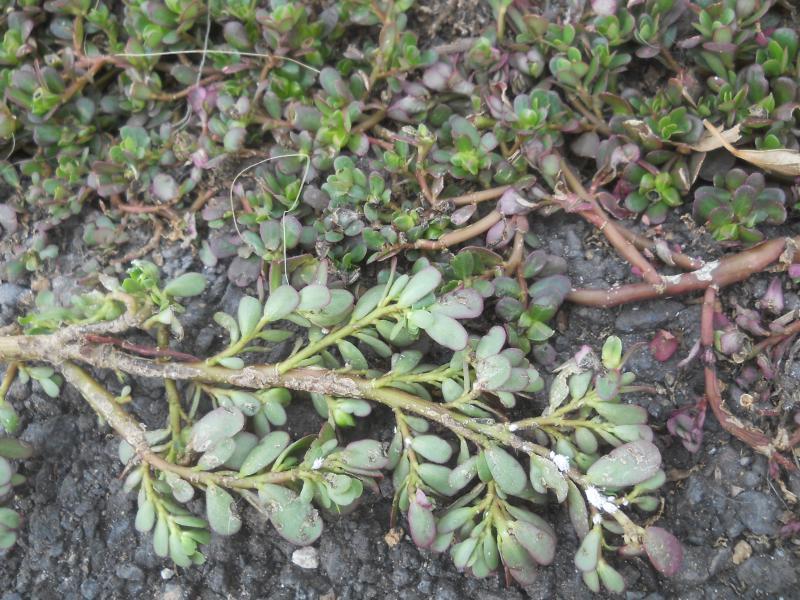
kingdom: Plantae
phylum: Tracheophyta
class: Magnoliopsida
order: Caryophyllales
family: Portulacaceae
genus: Portulaca
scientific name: Portulaca oleracea
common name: Common purslane
